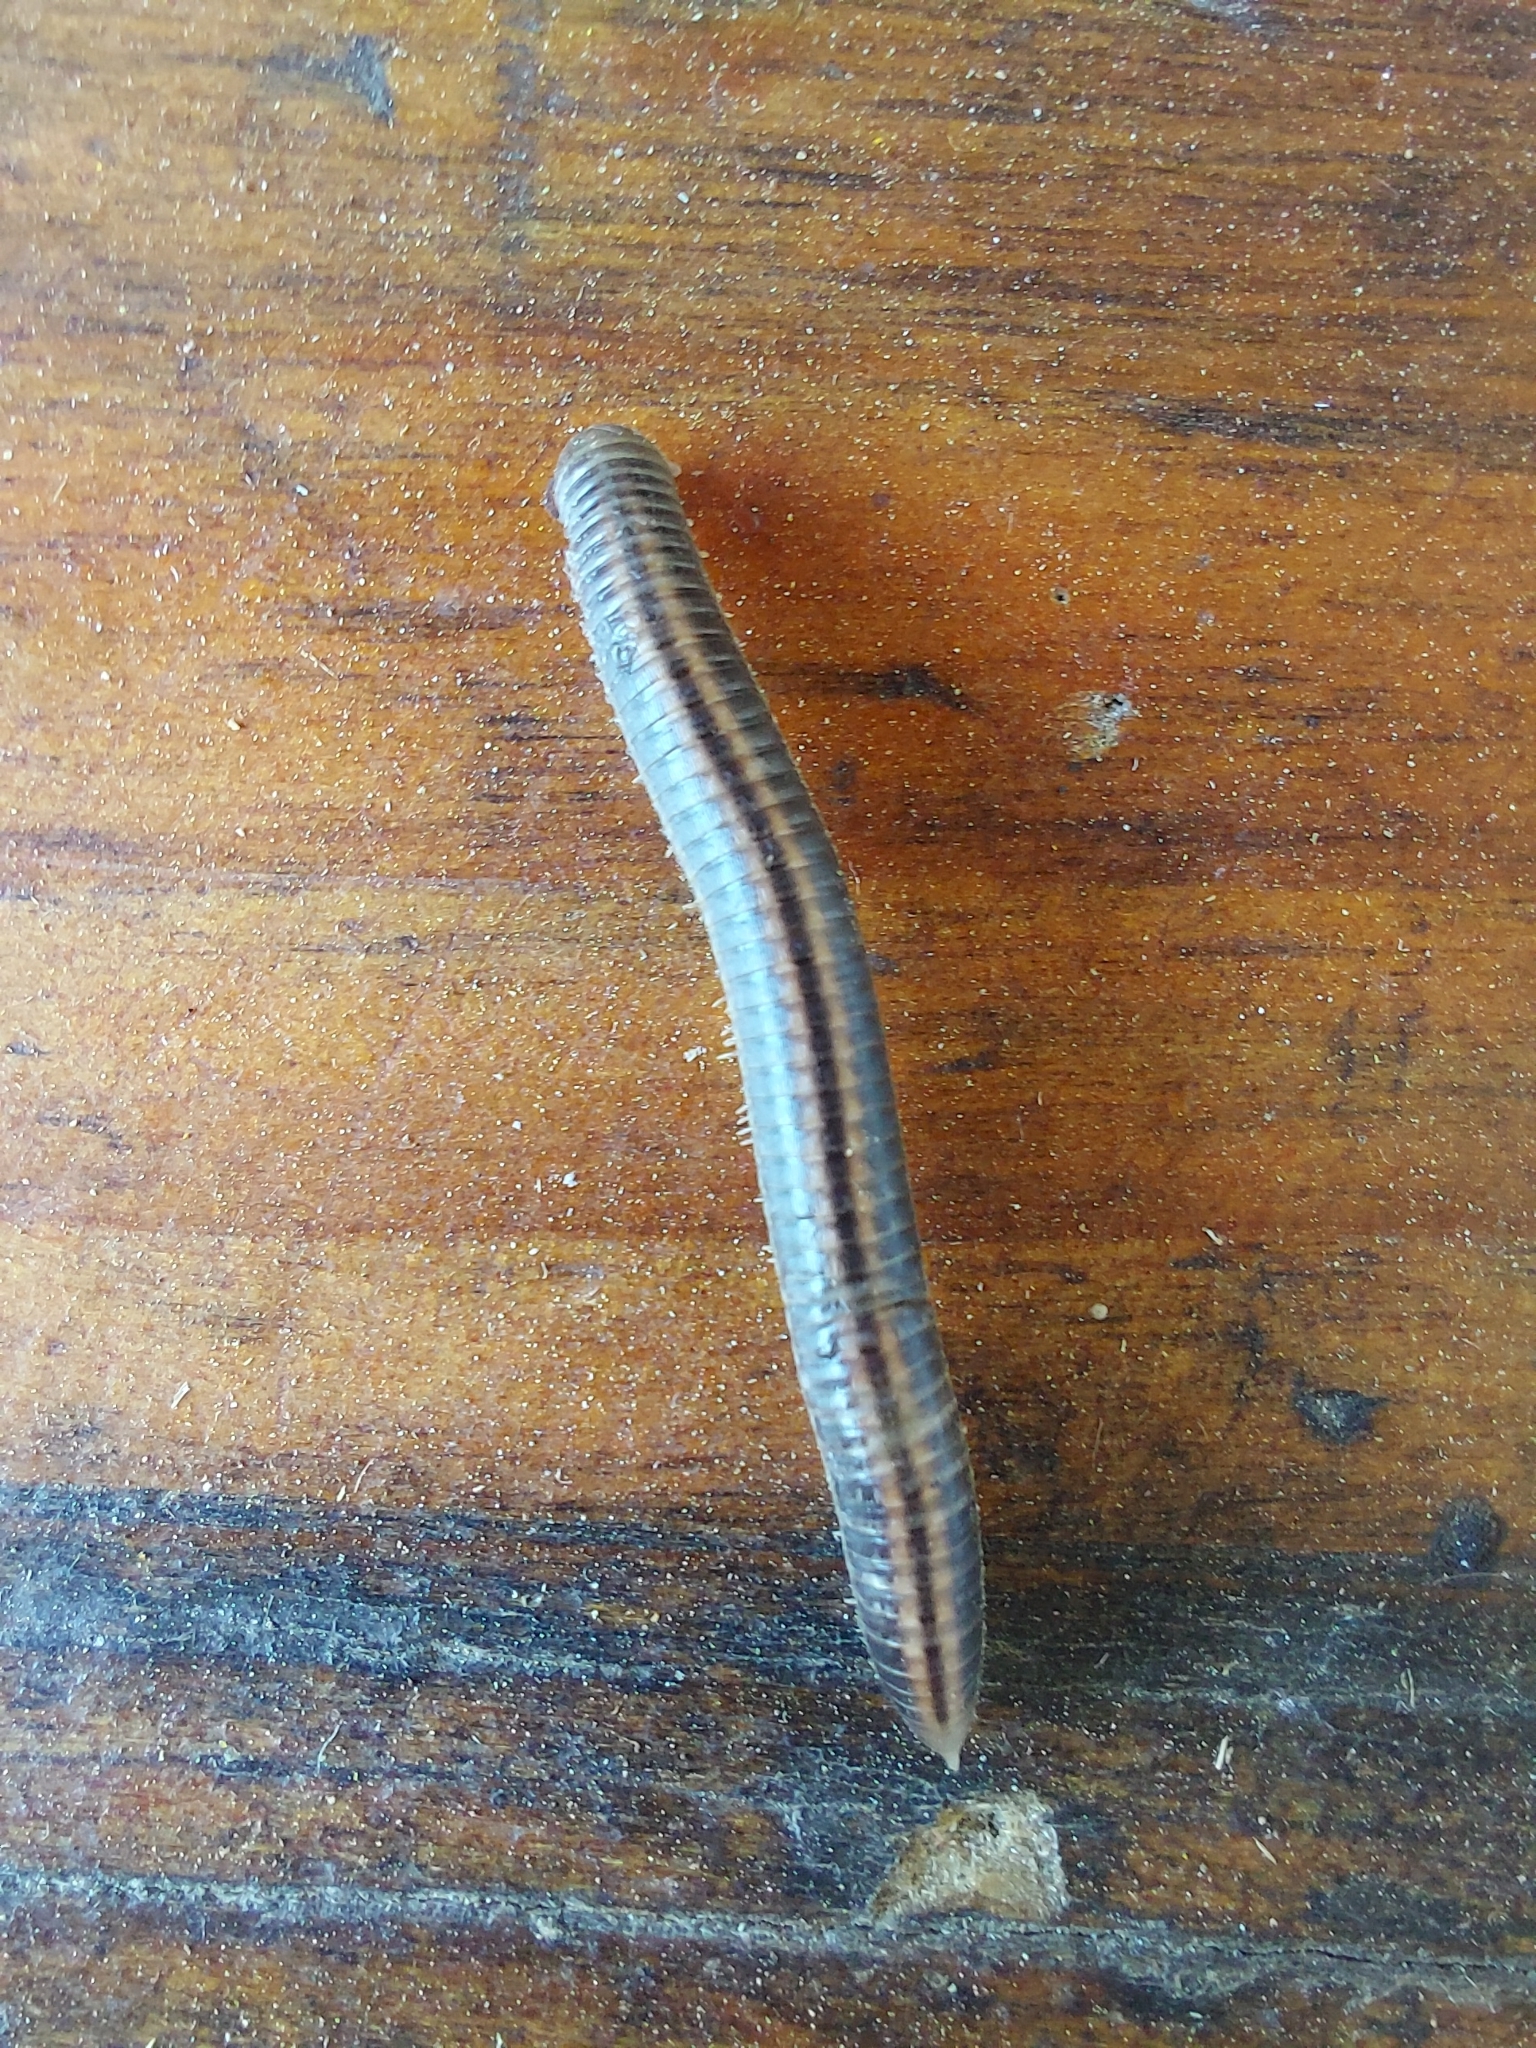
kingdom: Animalia
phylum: Arthropoda
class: Diplopoda
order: Julida
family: Julidae
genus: Ommatoiulus
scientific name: Ommatoiulus sabulosus
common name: Striped millipede
